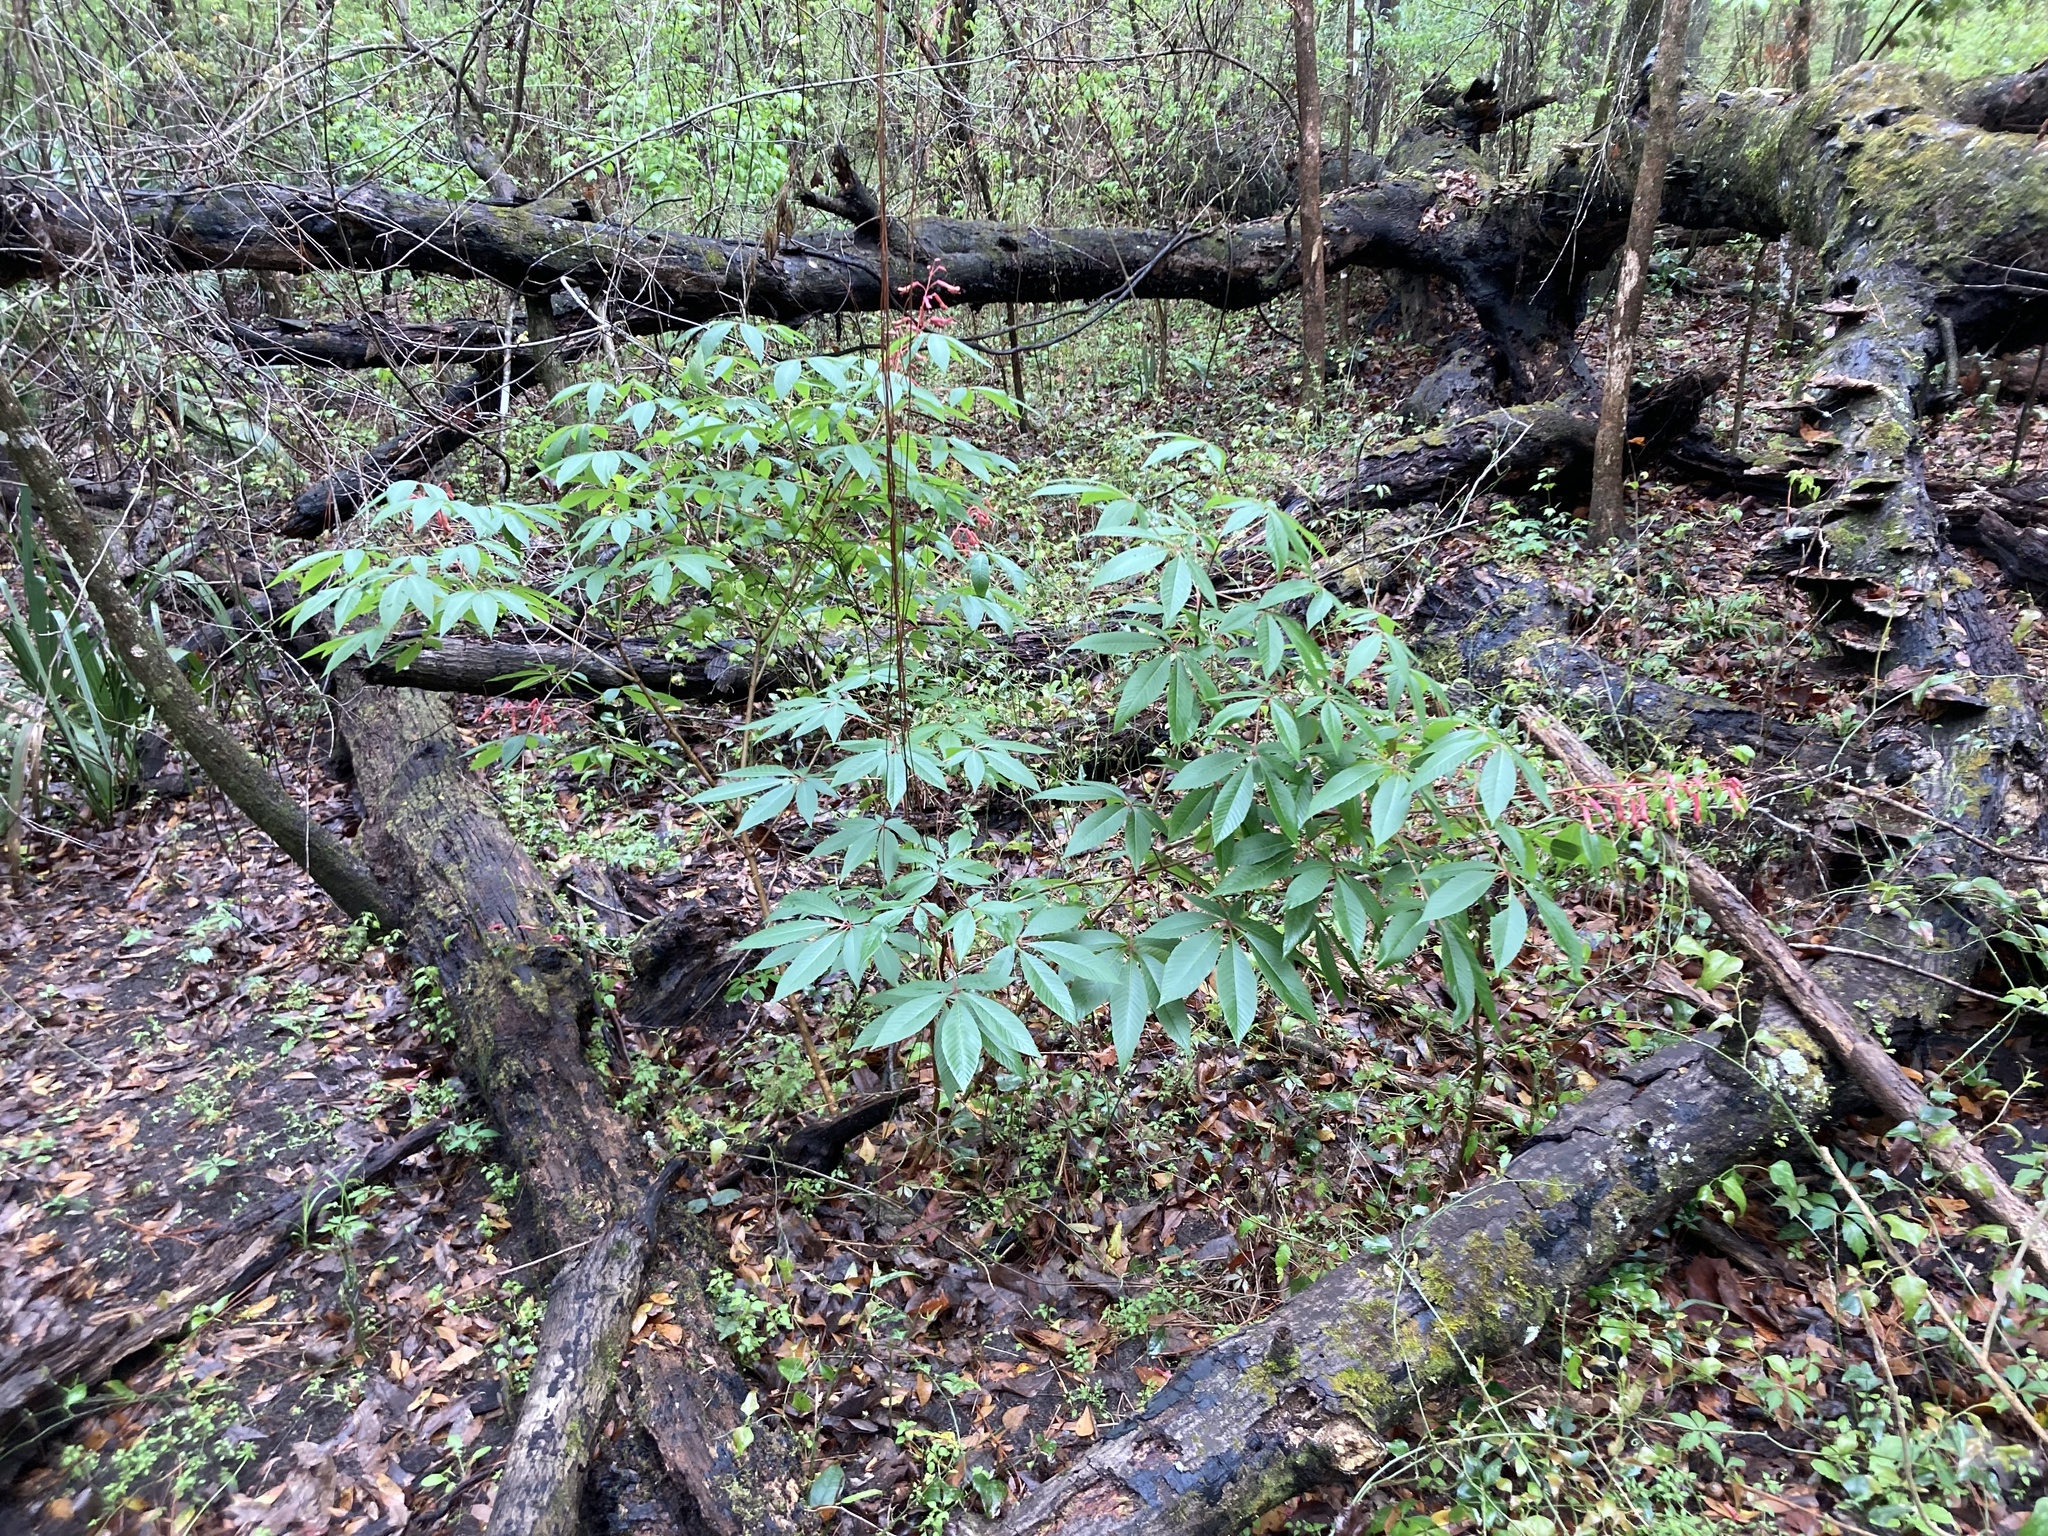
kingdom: Plantae
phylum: Tracheophyta
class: Magnoliopsida
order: Sapindales
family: Sapindaceae
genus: Aesculus
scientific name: Aesculus pavia
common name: Red buckeye
